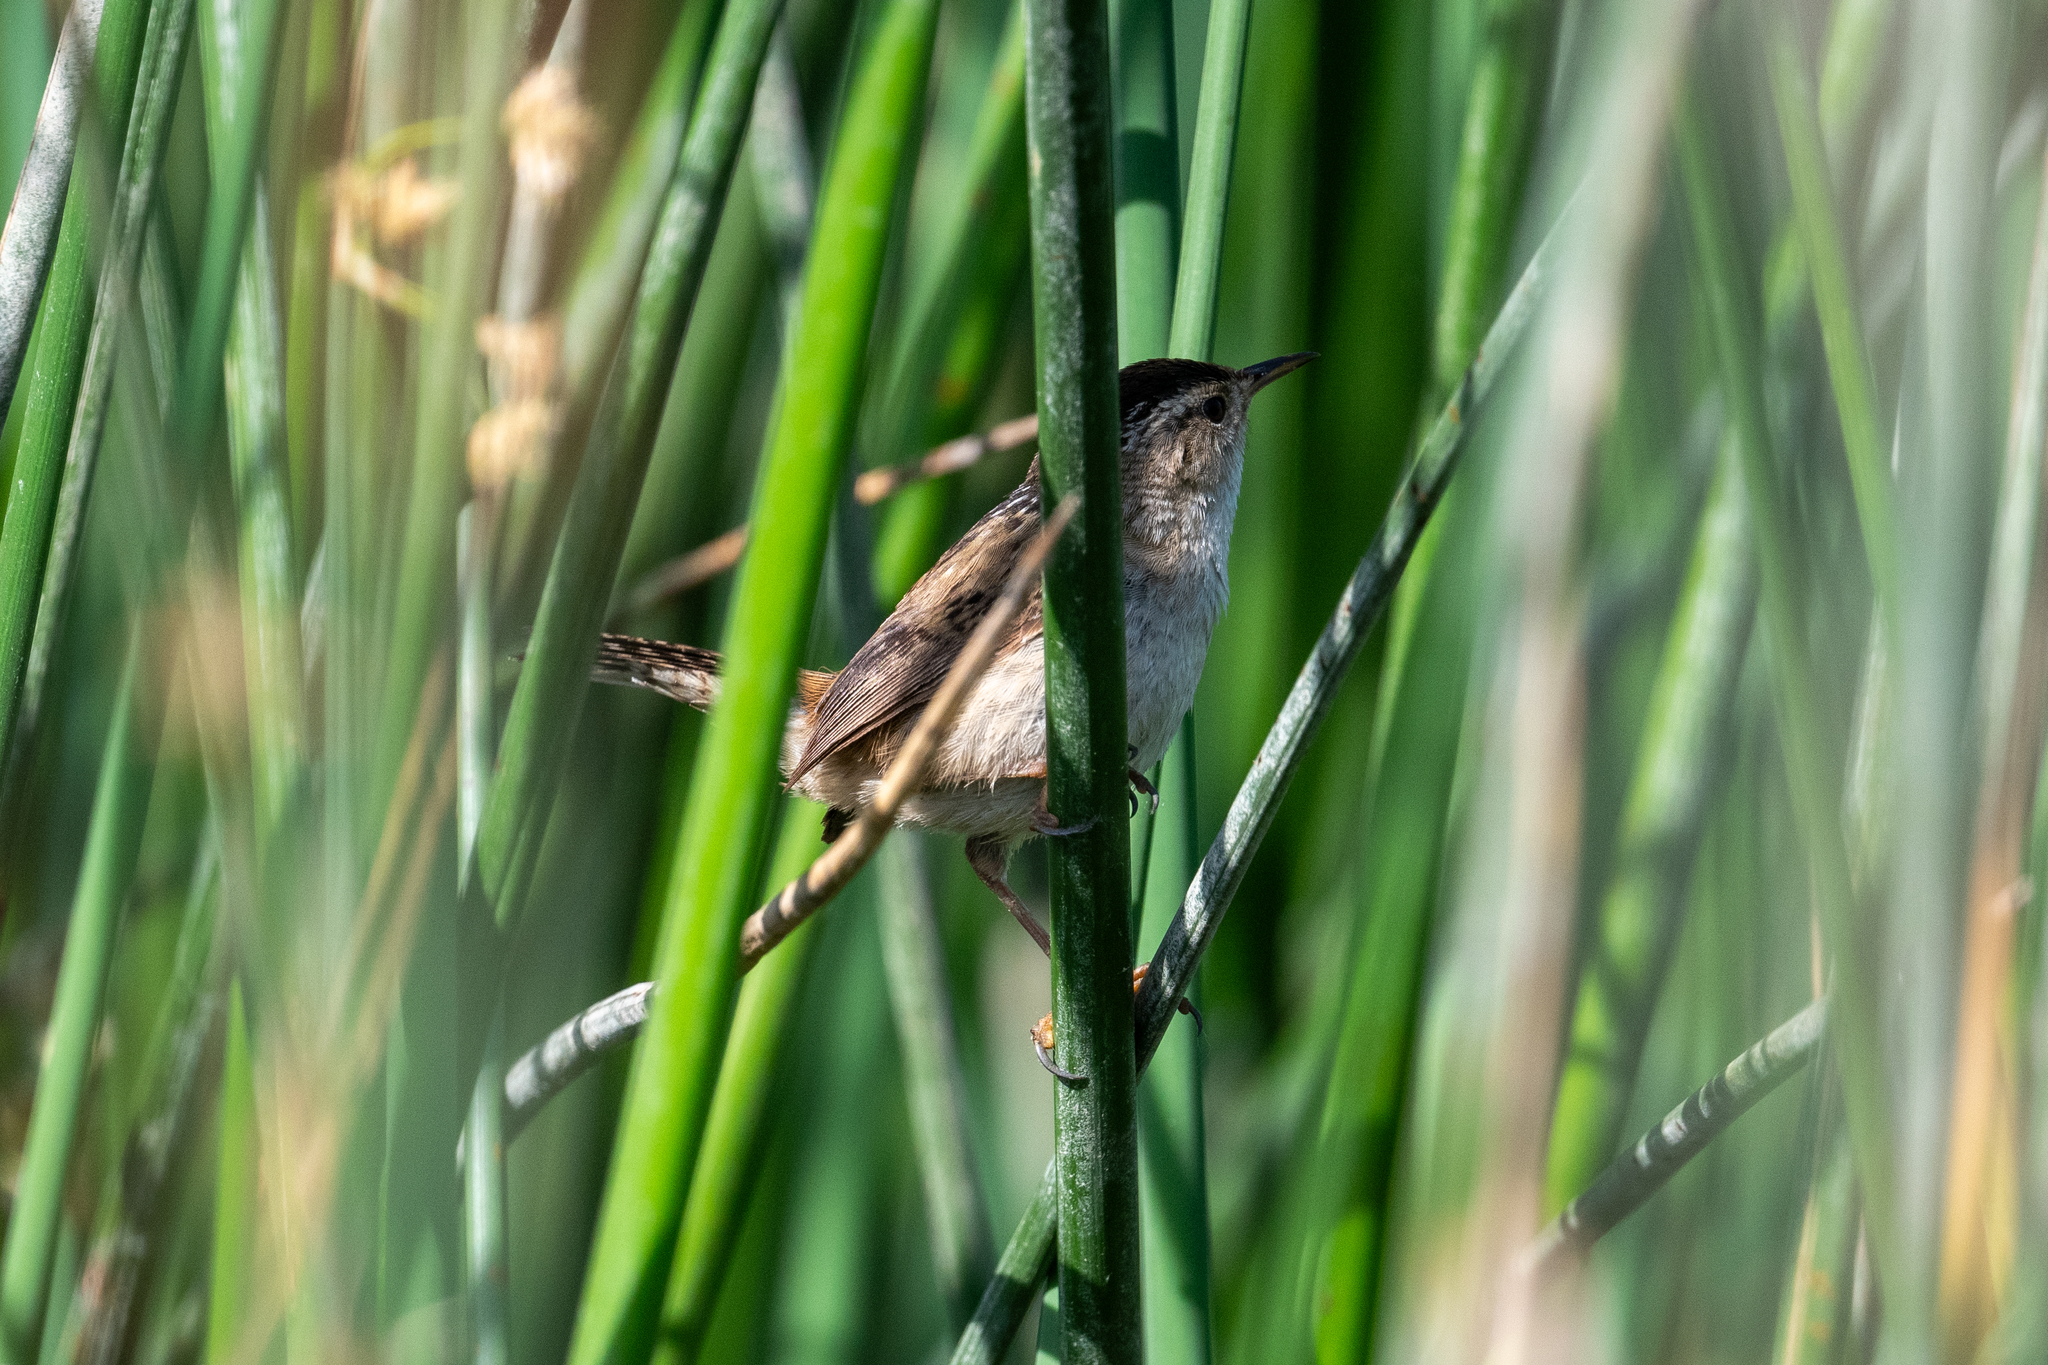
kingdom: Animalia
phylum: Chordata
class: Aves
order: Passeriformes
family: Troglodytidae
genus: Cistothorus
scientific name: Cistothorus palustris
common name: Marsh wren
